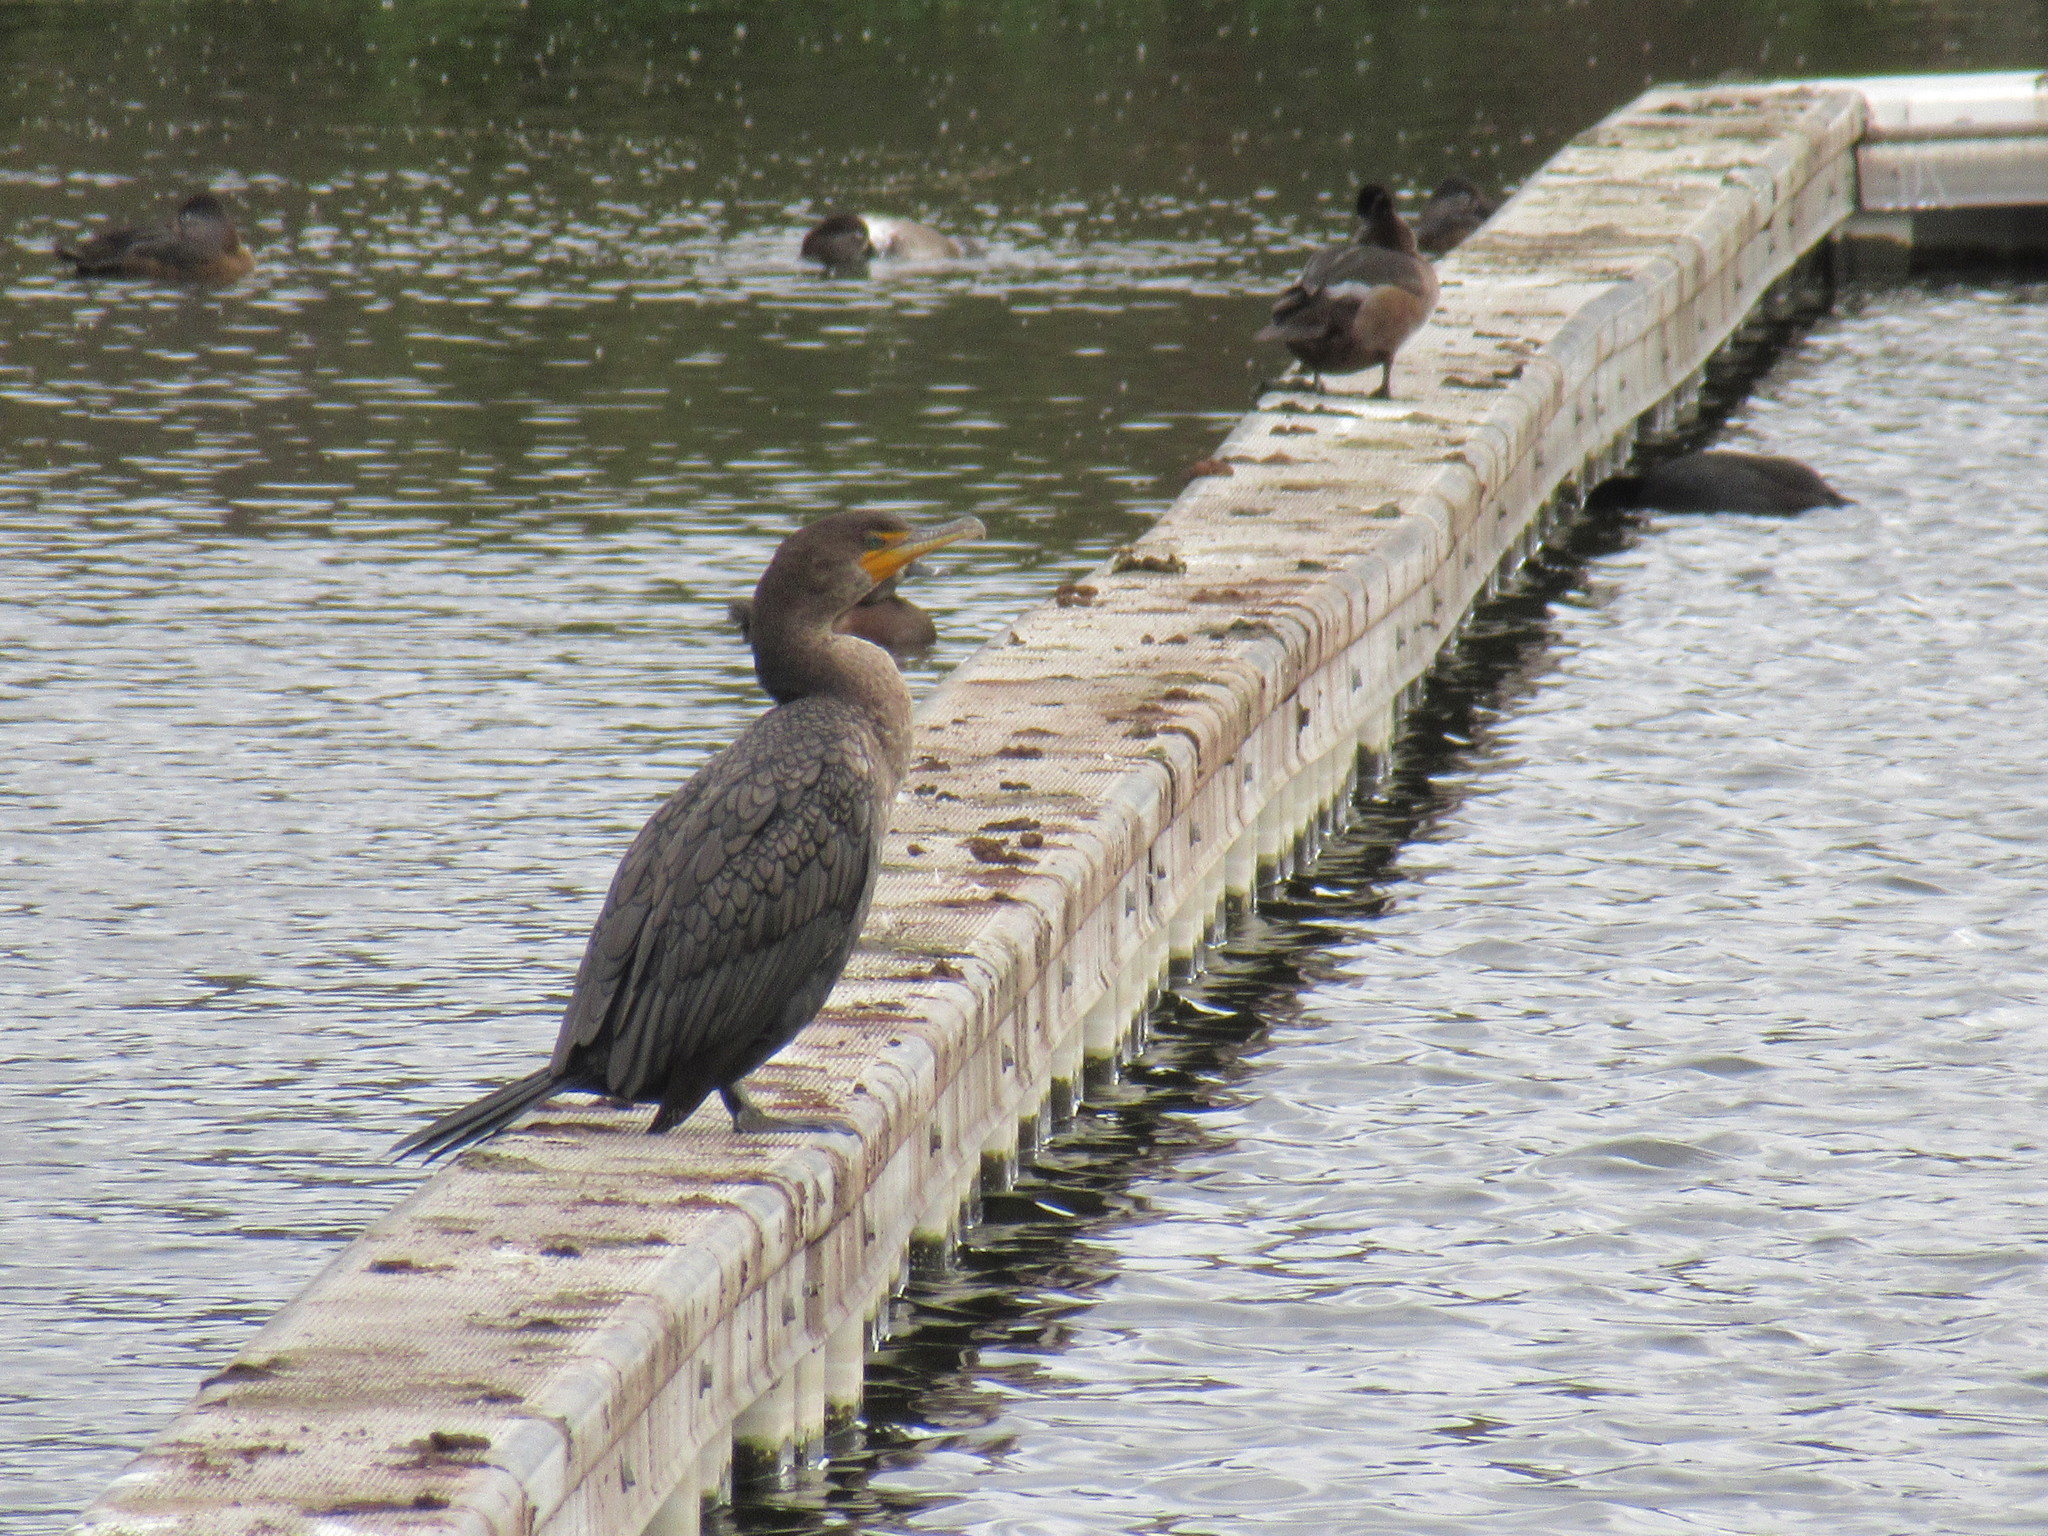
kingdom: Animalia
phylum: Chordata
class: Aves
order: Suliformes
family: Phalacrocoracidae
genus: Phalacrocorax
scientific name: Phalacrocorax auritus
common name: Double-crested cormorant
